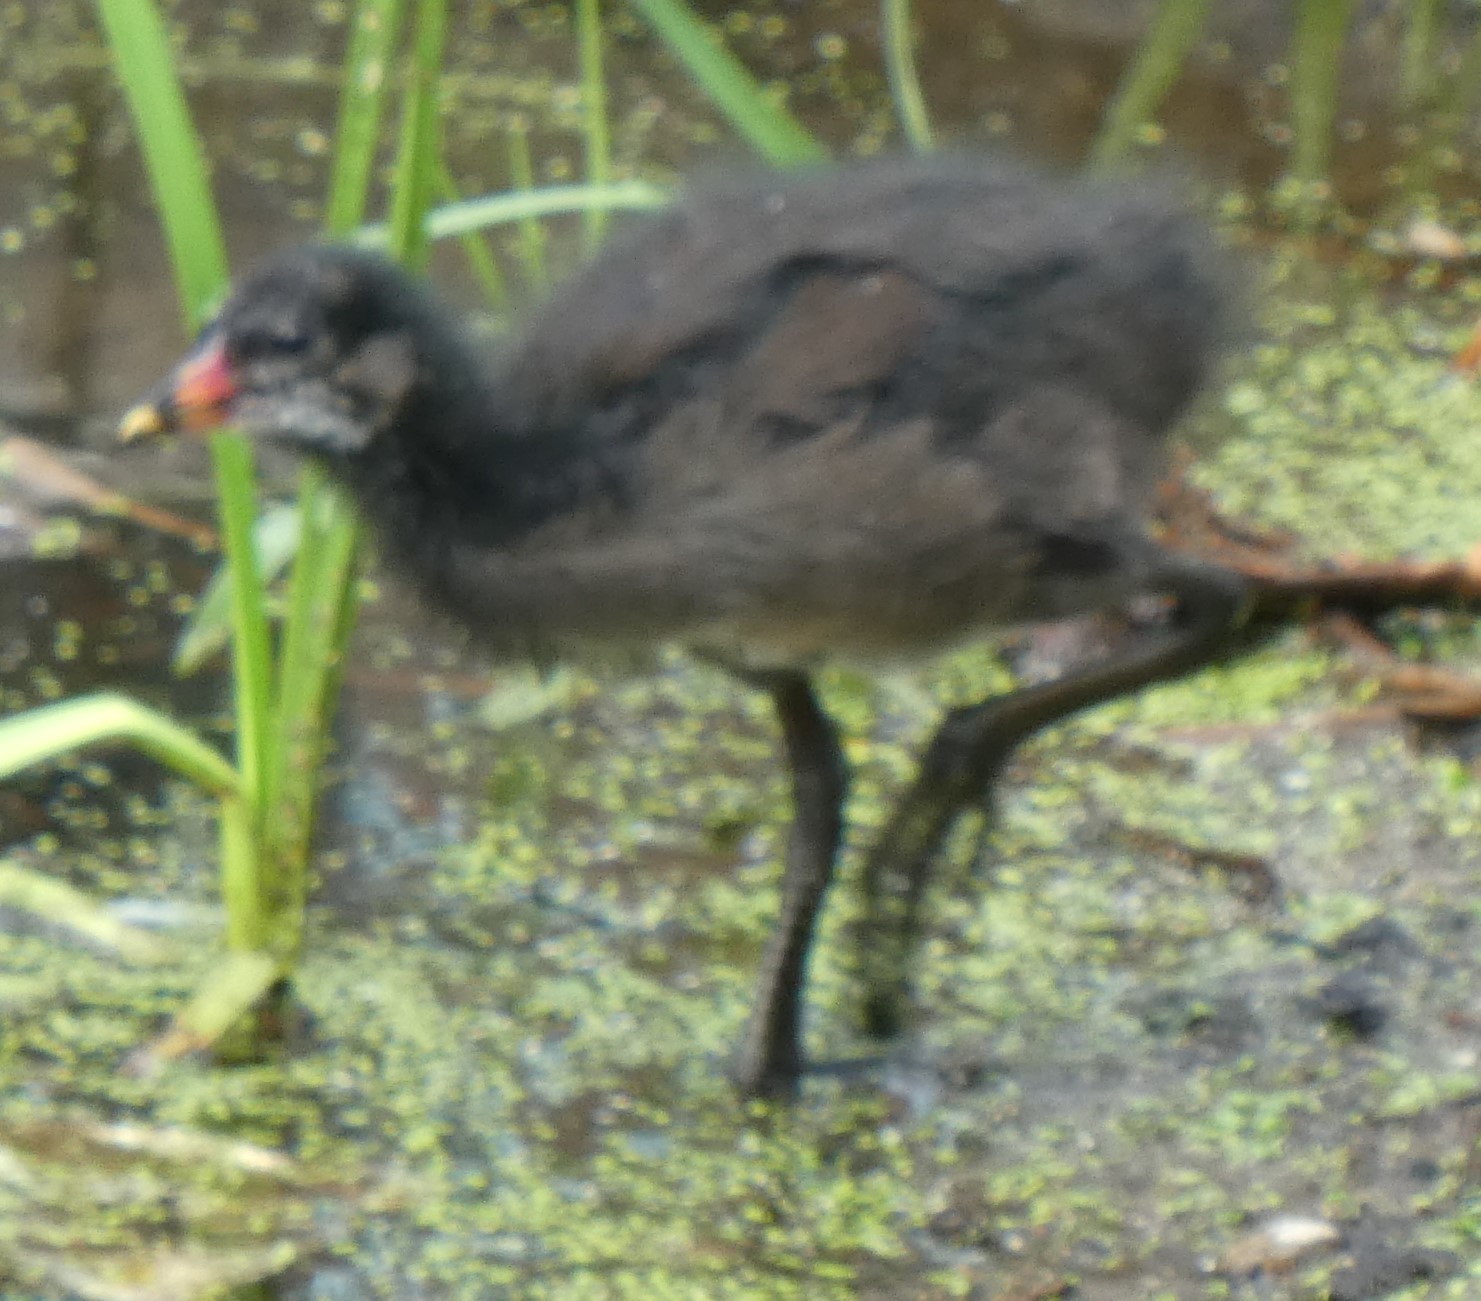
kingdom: Animalia
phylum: Chordata
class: Aves
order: Gruiformes
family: Rallidae
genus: Gallinula
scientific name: Gallinula chloropus
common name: Common moorhen
